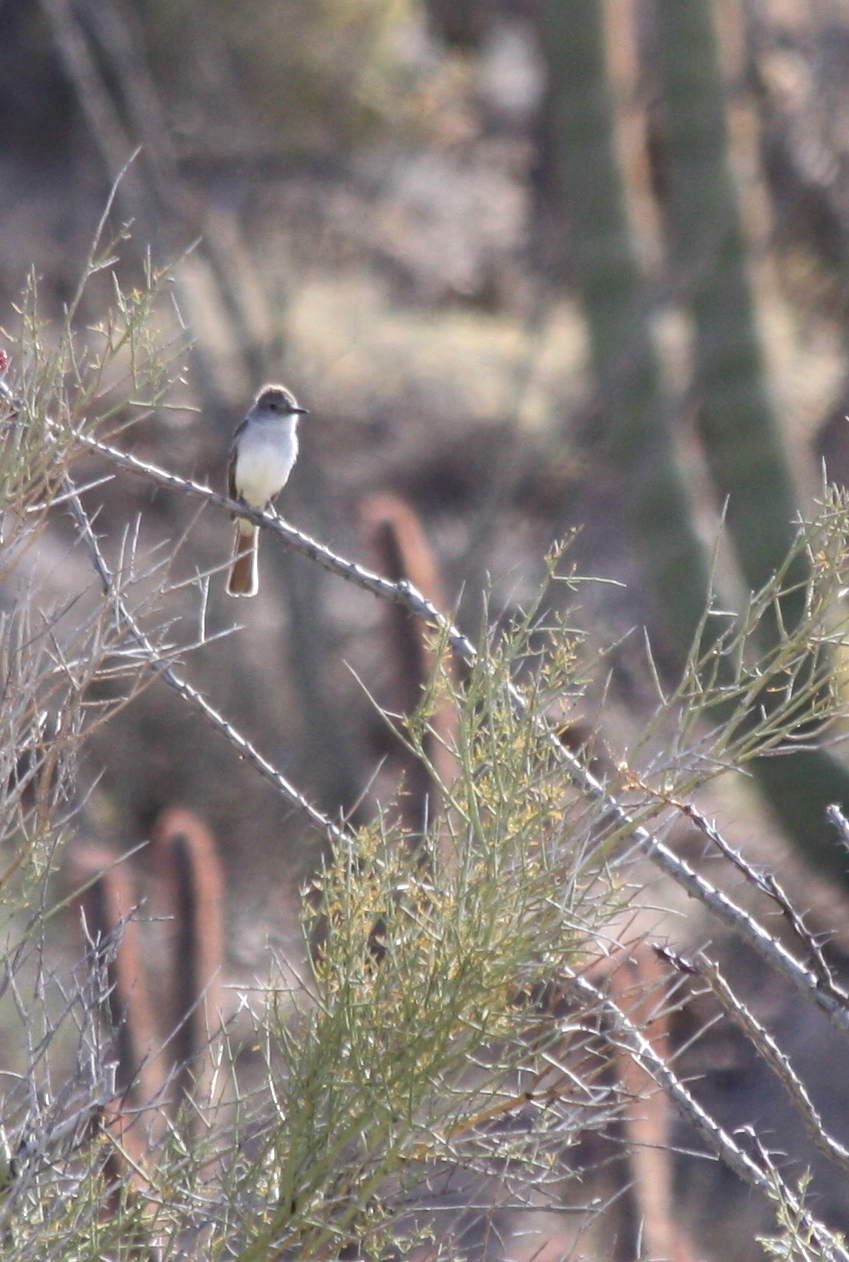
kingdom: Animalia
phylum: Chordata
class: Aves
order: Passeriformes
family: Tyrannidae
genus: Myiarchus
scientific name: Myiarchus cinerascens
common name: Ash-throated flycatcher
